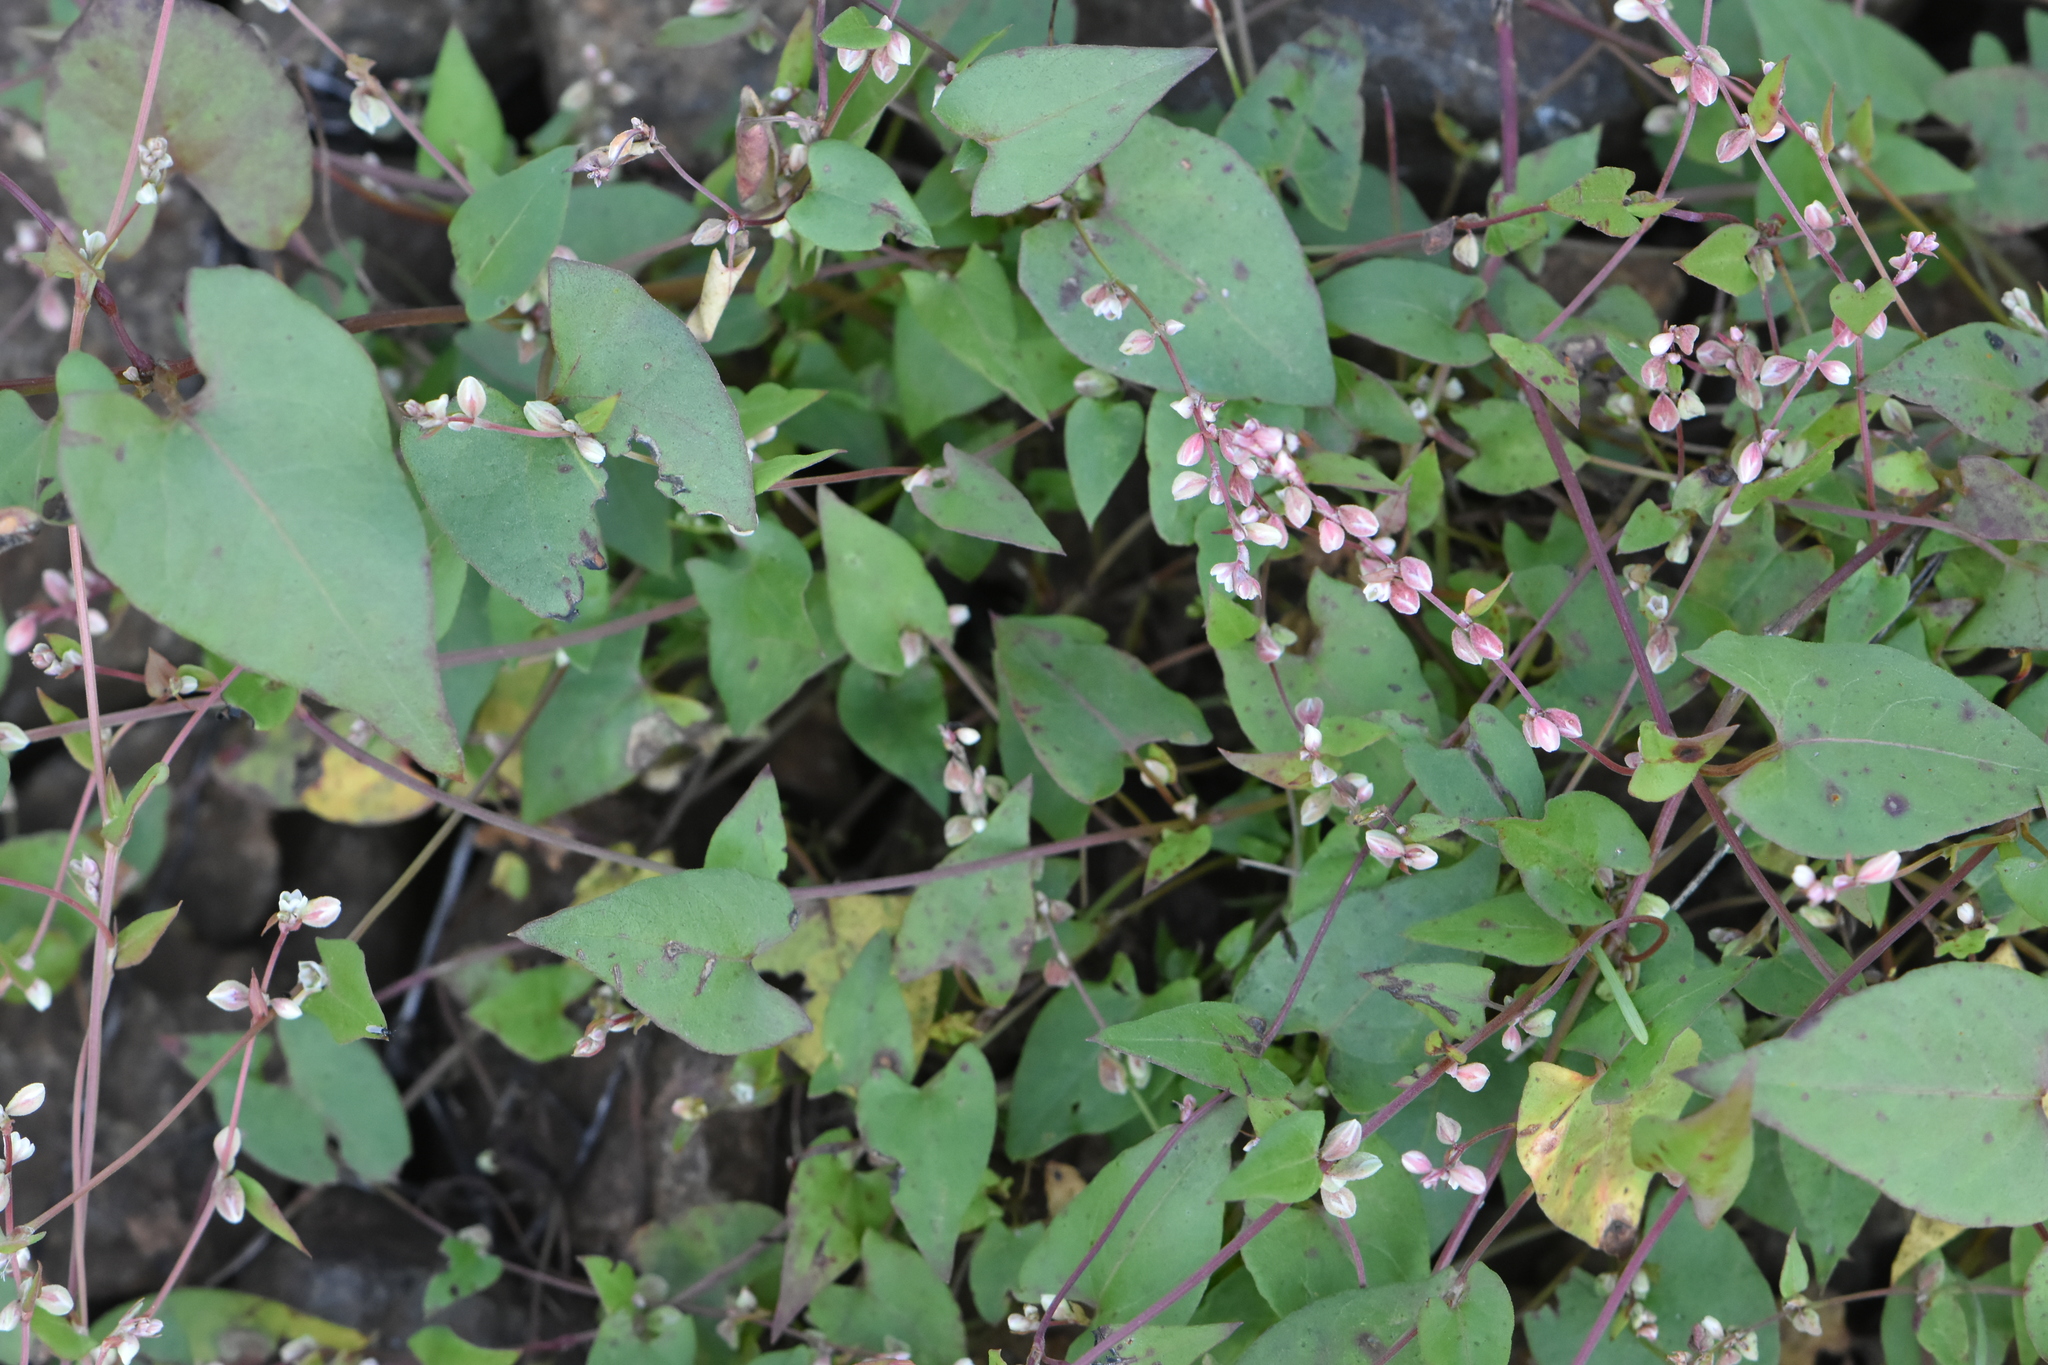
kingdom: Plantae
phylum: Tracheophyta
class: Magnoliopsida
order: Caryophyllales
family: Polygonaceae
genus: Fallopia
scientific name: Fallopia convolvulus
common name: Black bindweed
